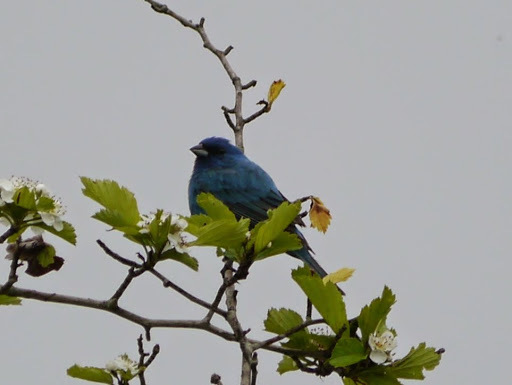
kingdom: Animalia
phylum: Chordata
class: Aves
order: Passeriformes
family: Cardinalidae
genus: Passerina
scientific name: Passerina cyanea
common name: Indigo bunting
